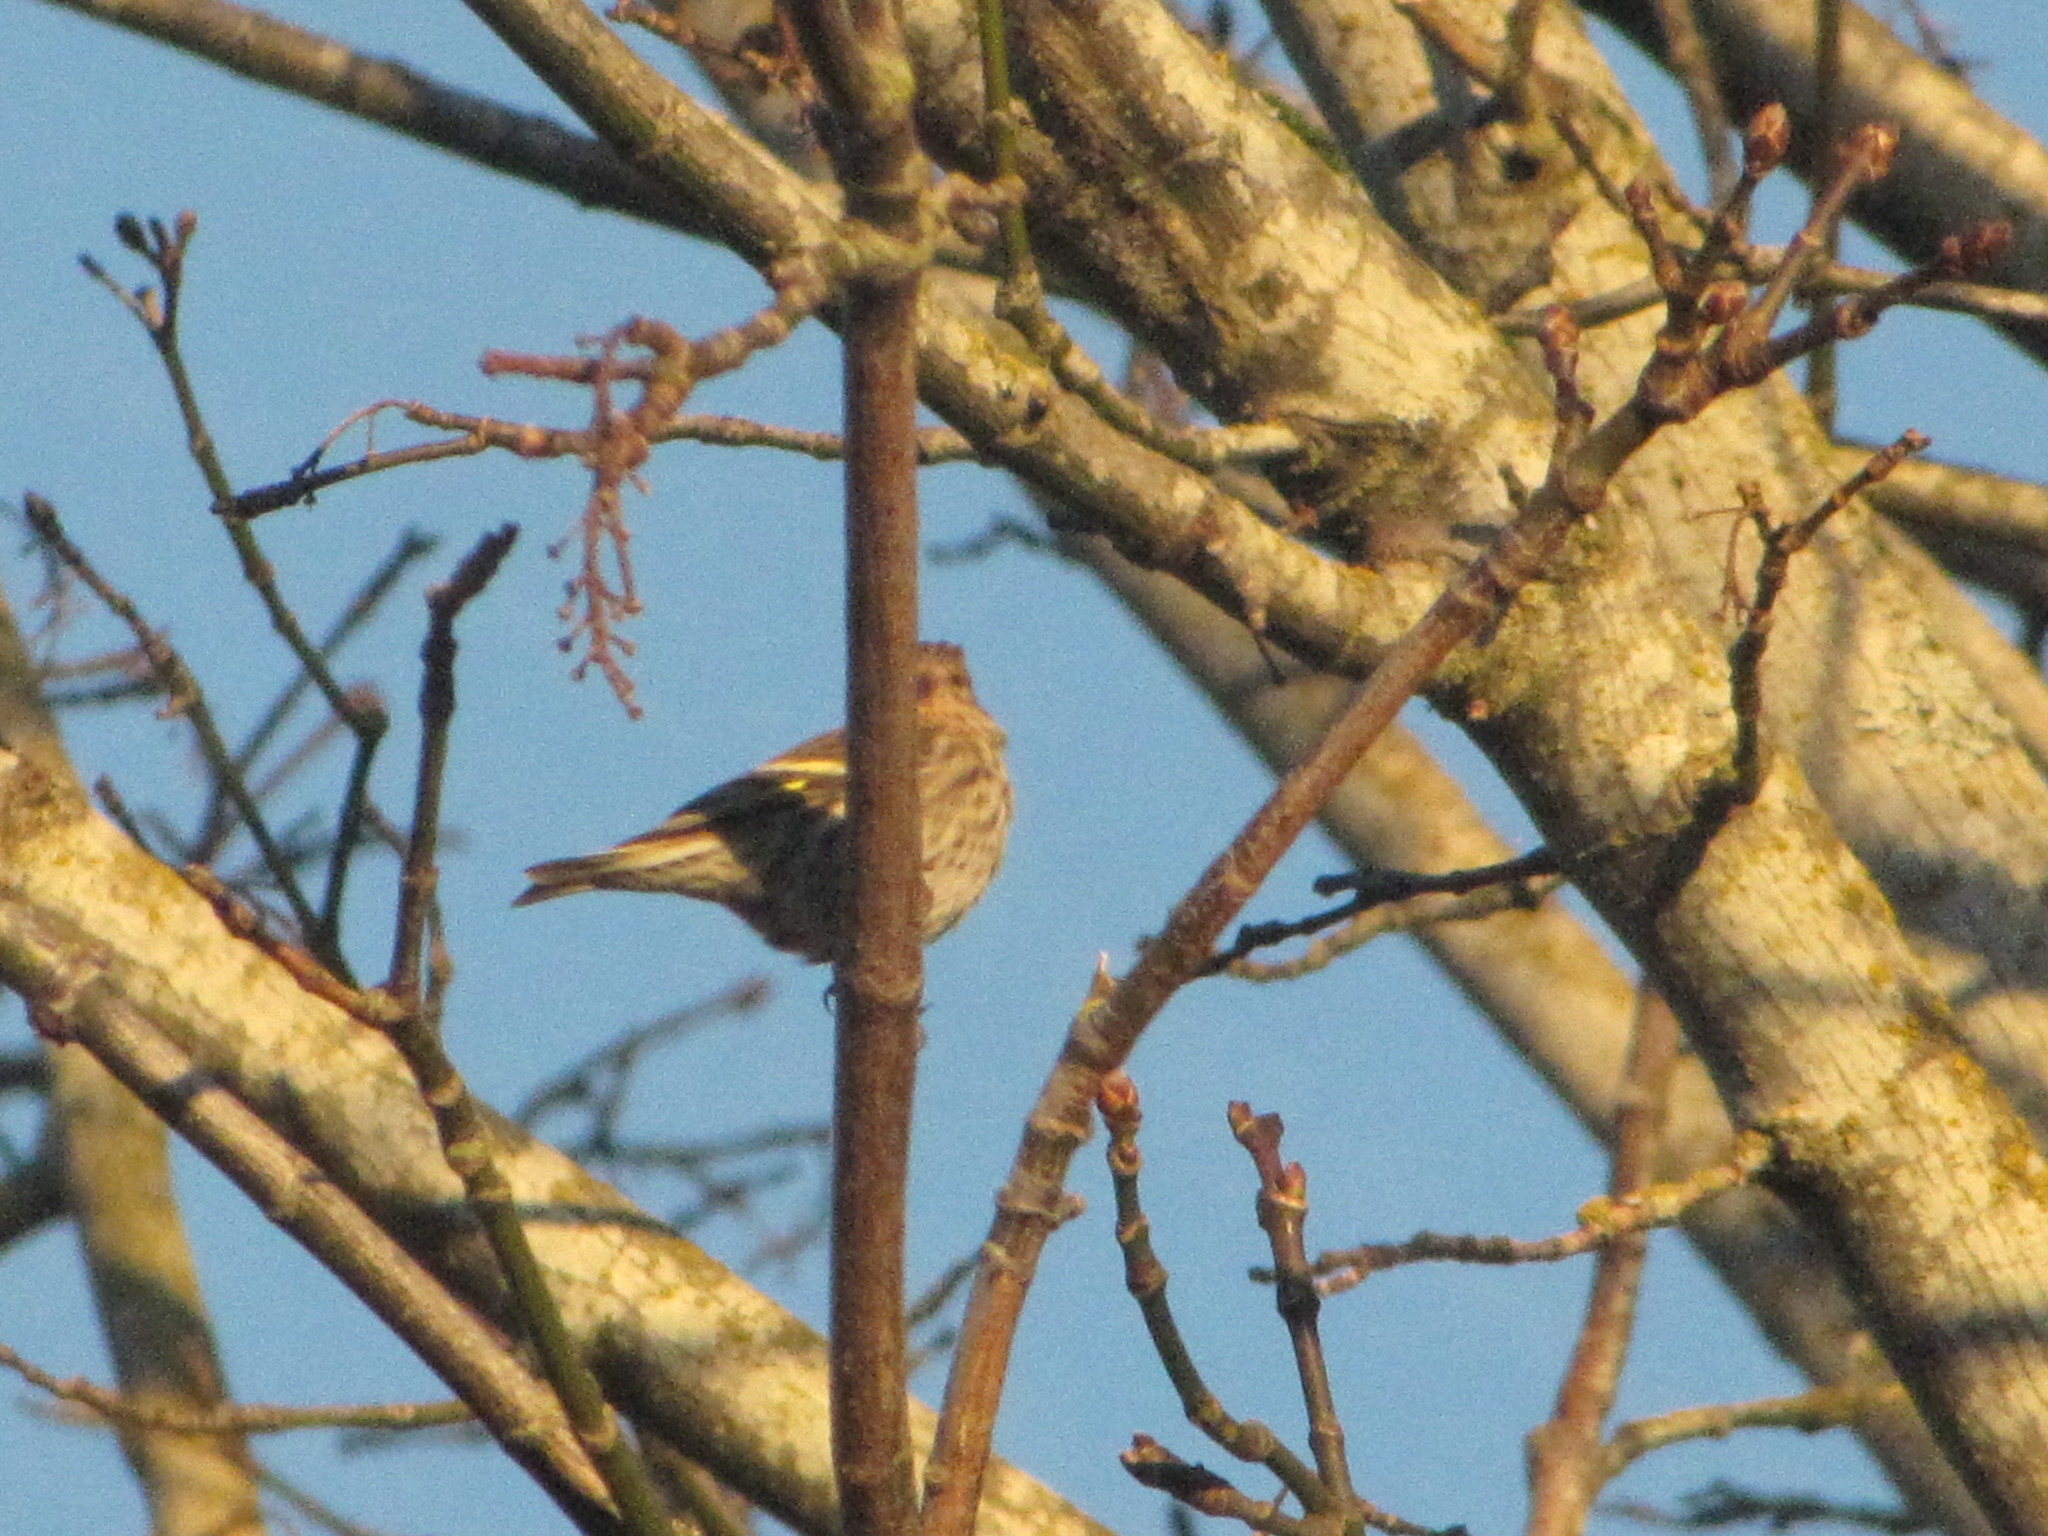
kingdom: Animalia
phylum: Chordata
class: Aves
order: Passeriformes
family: Fringillidae
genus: Spinus
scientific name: Spinus pinus
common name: Pine siskin
